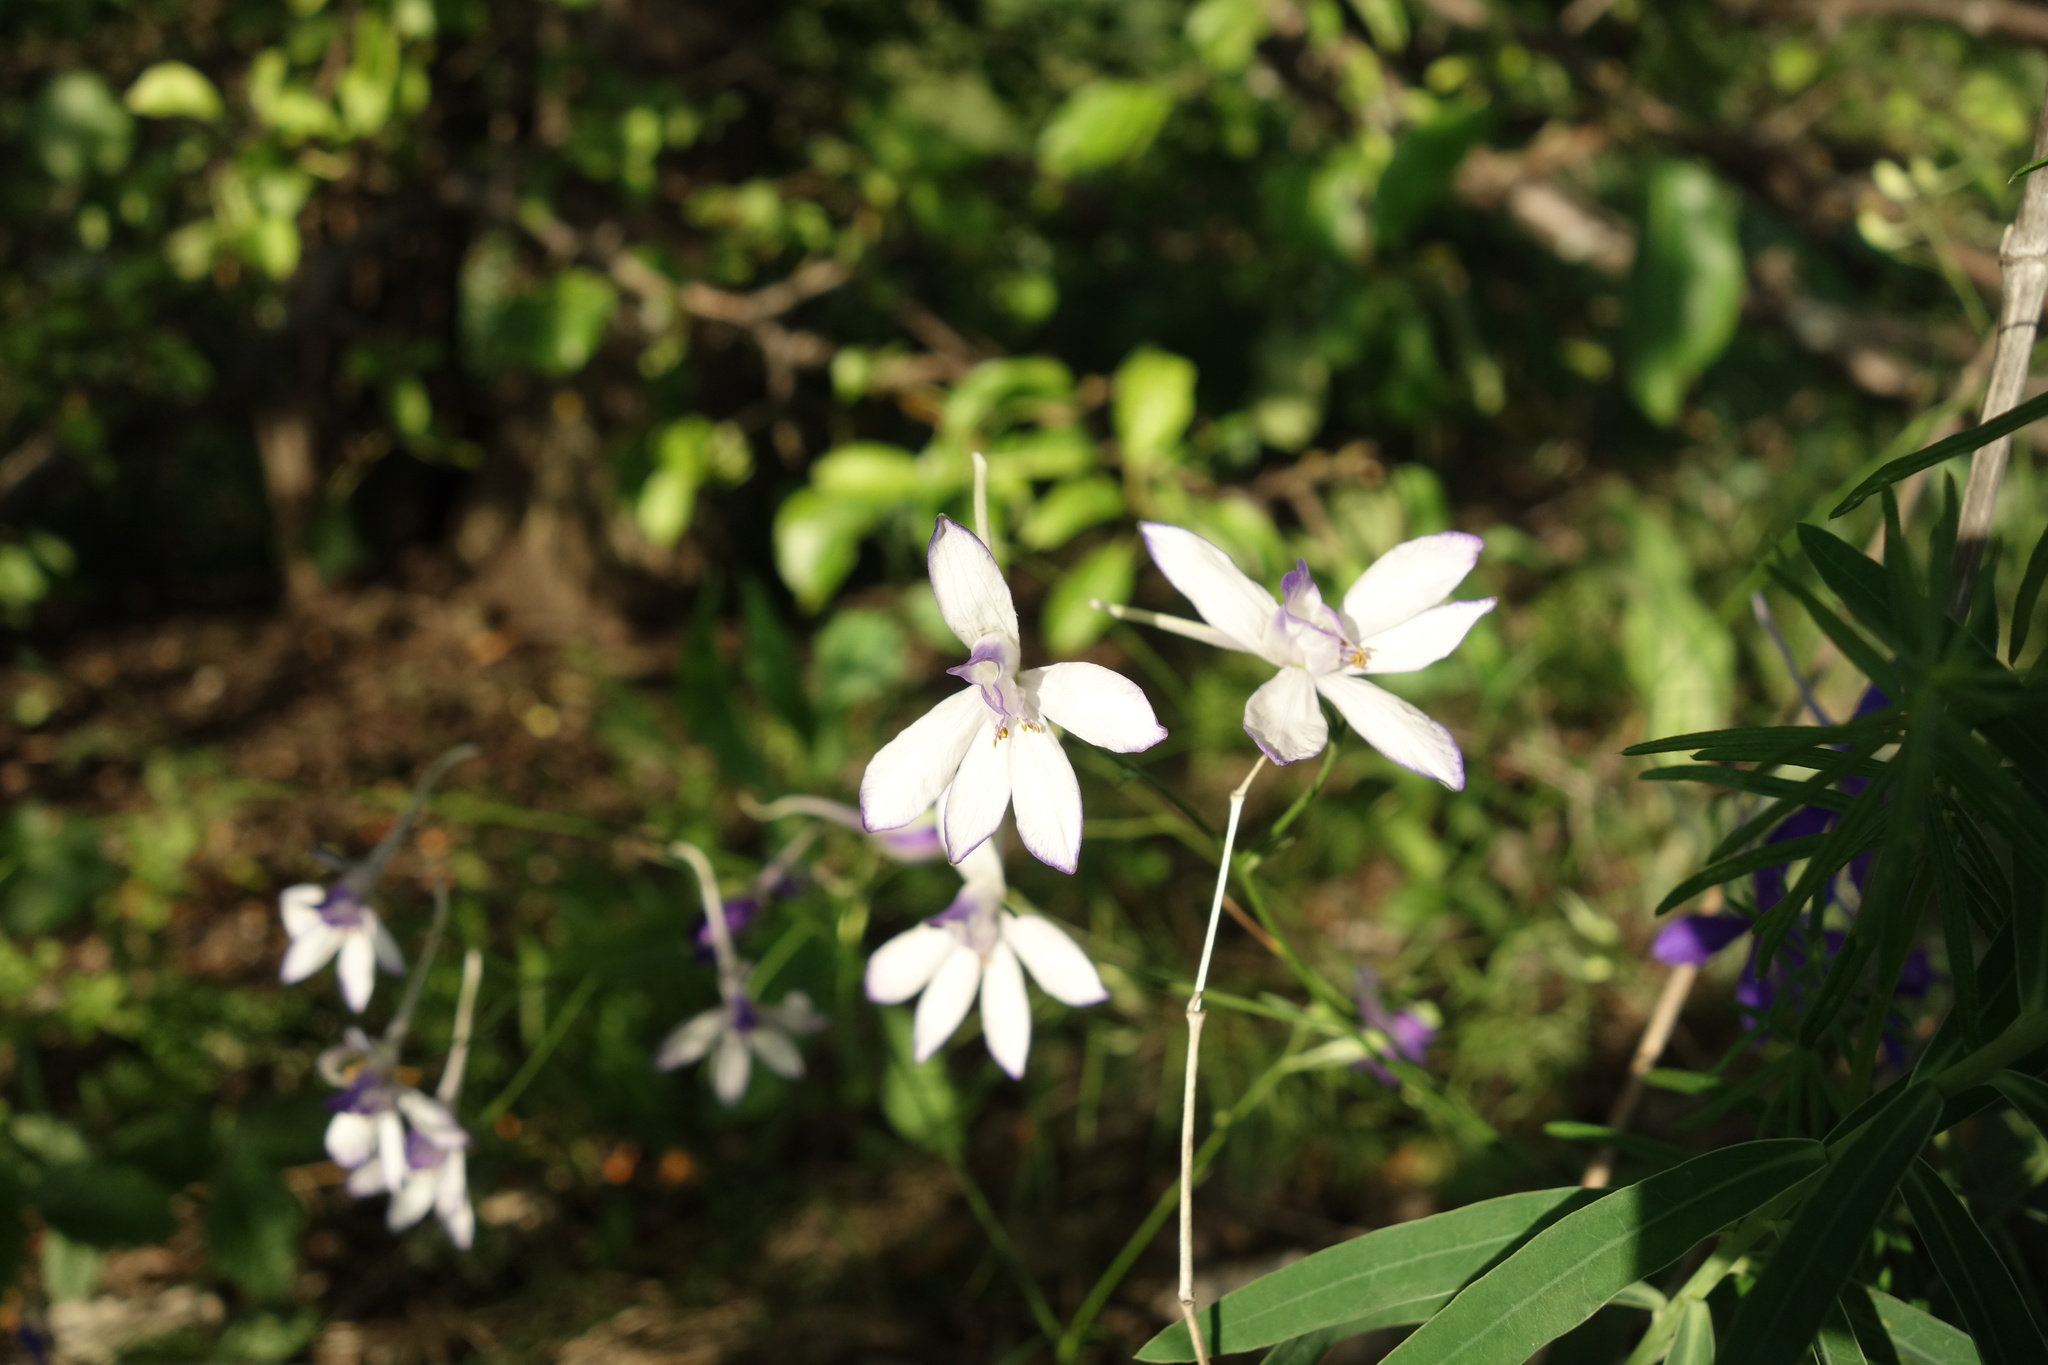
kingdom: Plantae
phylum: Tracheophyta
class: Magnoliopsida
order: Ranunculales
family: Ranunculaceae
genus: Delphinium
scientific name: Delphinium consolida
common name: Branching larkspur
